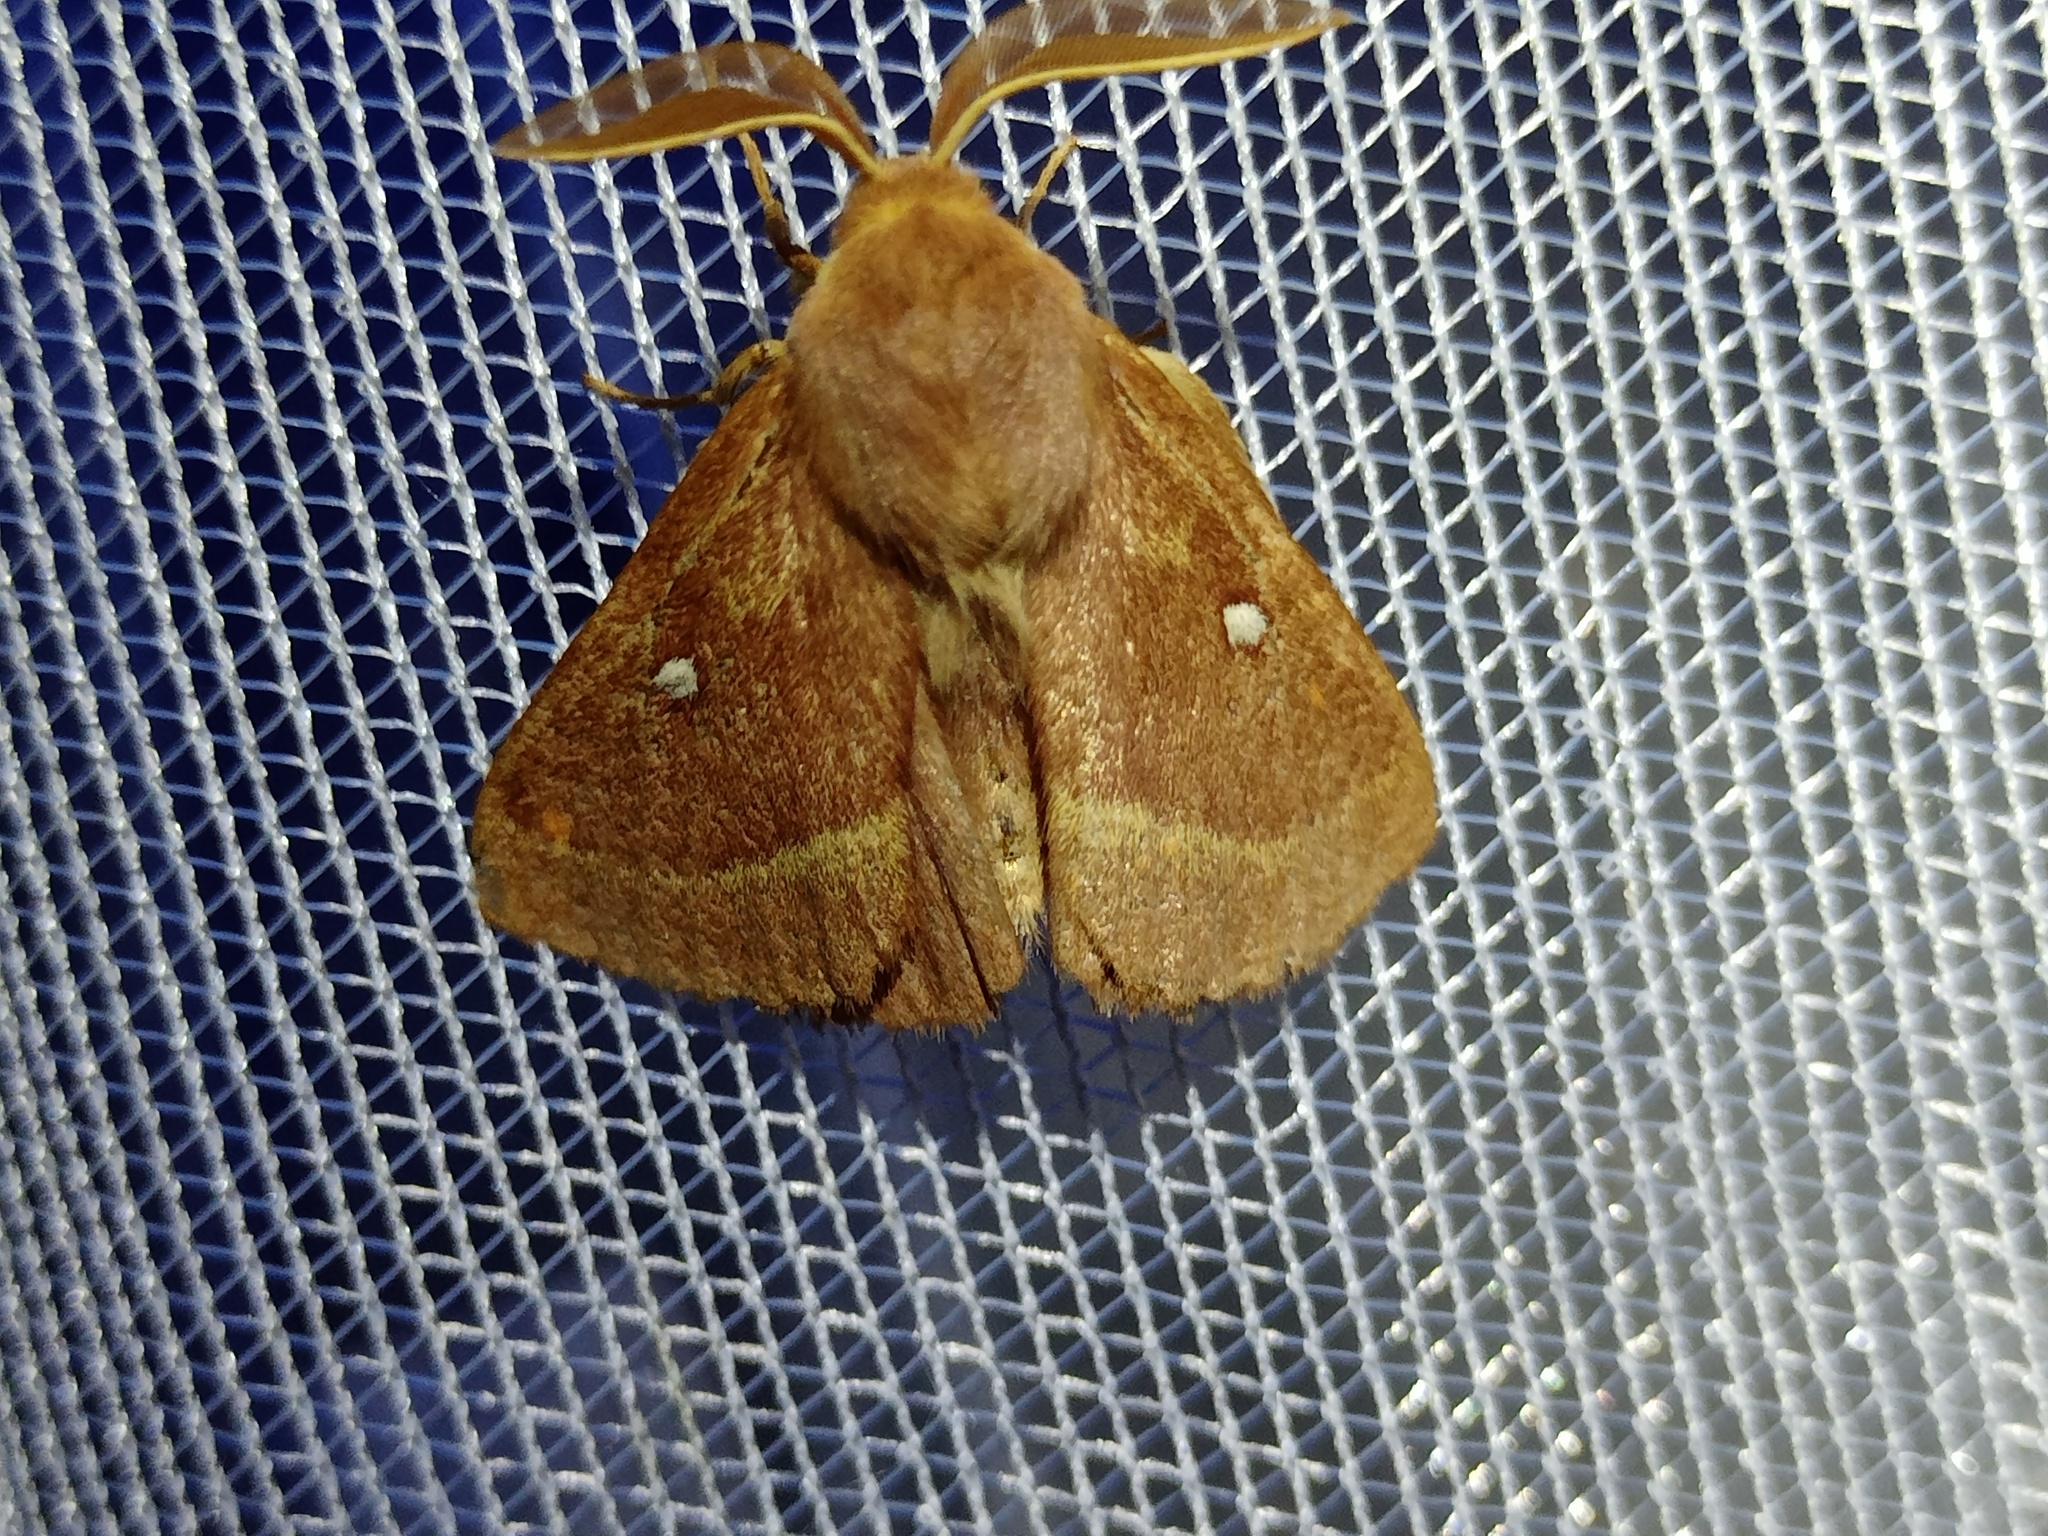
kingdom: Animalia
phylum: Arthropoda
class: Insecta
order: Lepidoptera
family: Lasiocampidae
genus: Lasiocampa
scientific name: Lasiocampa trifolii
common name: Grass eggar
